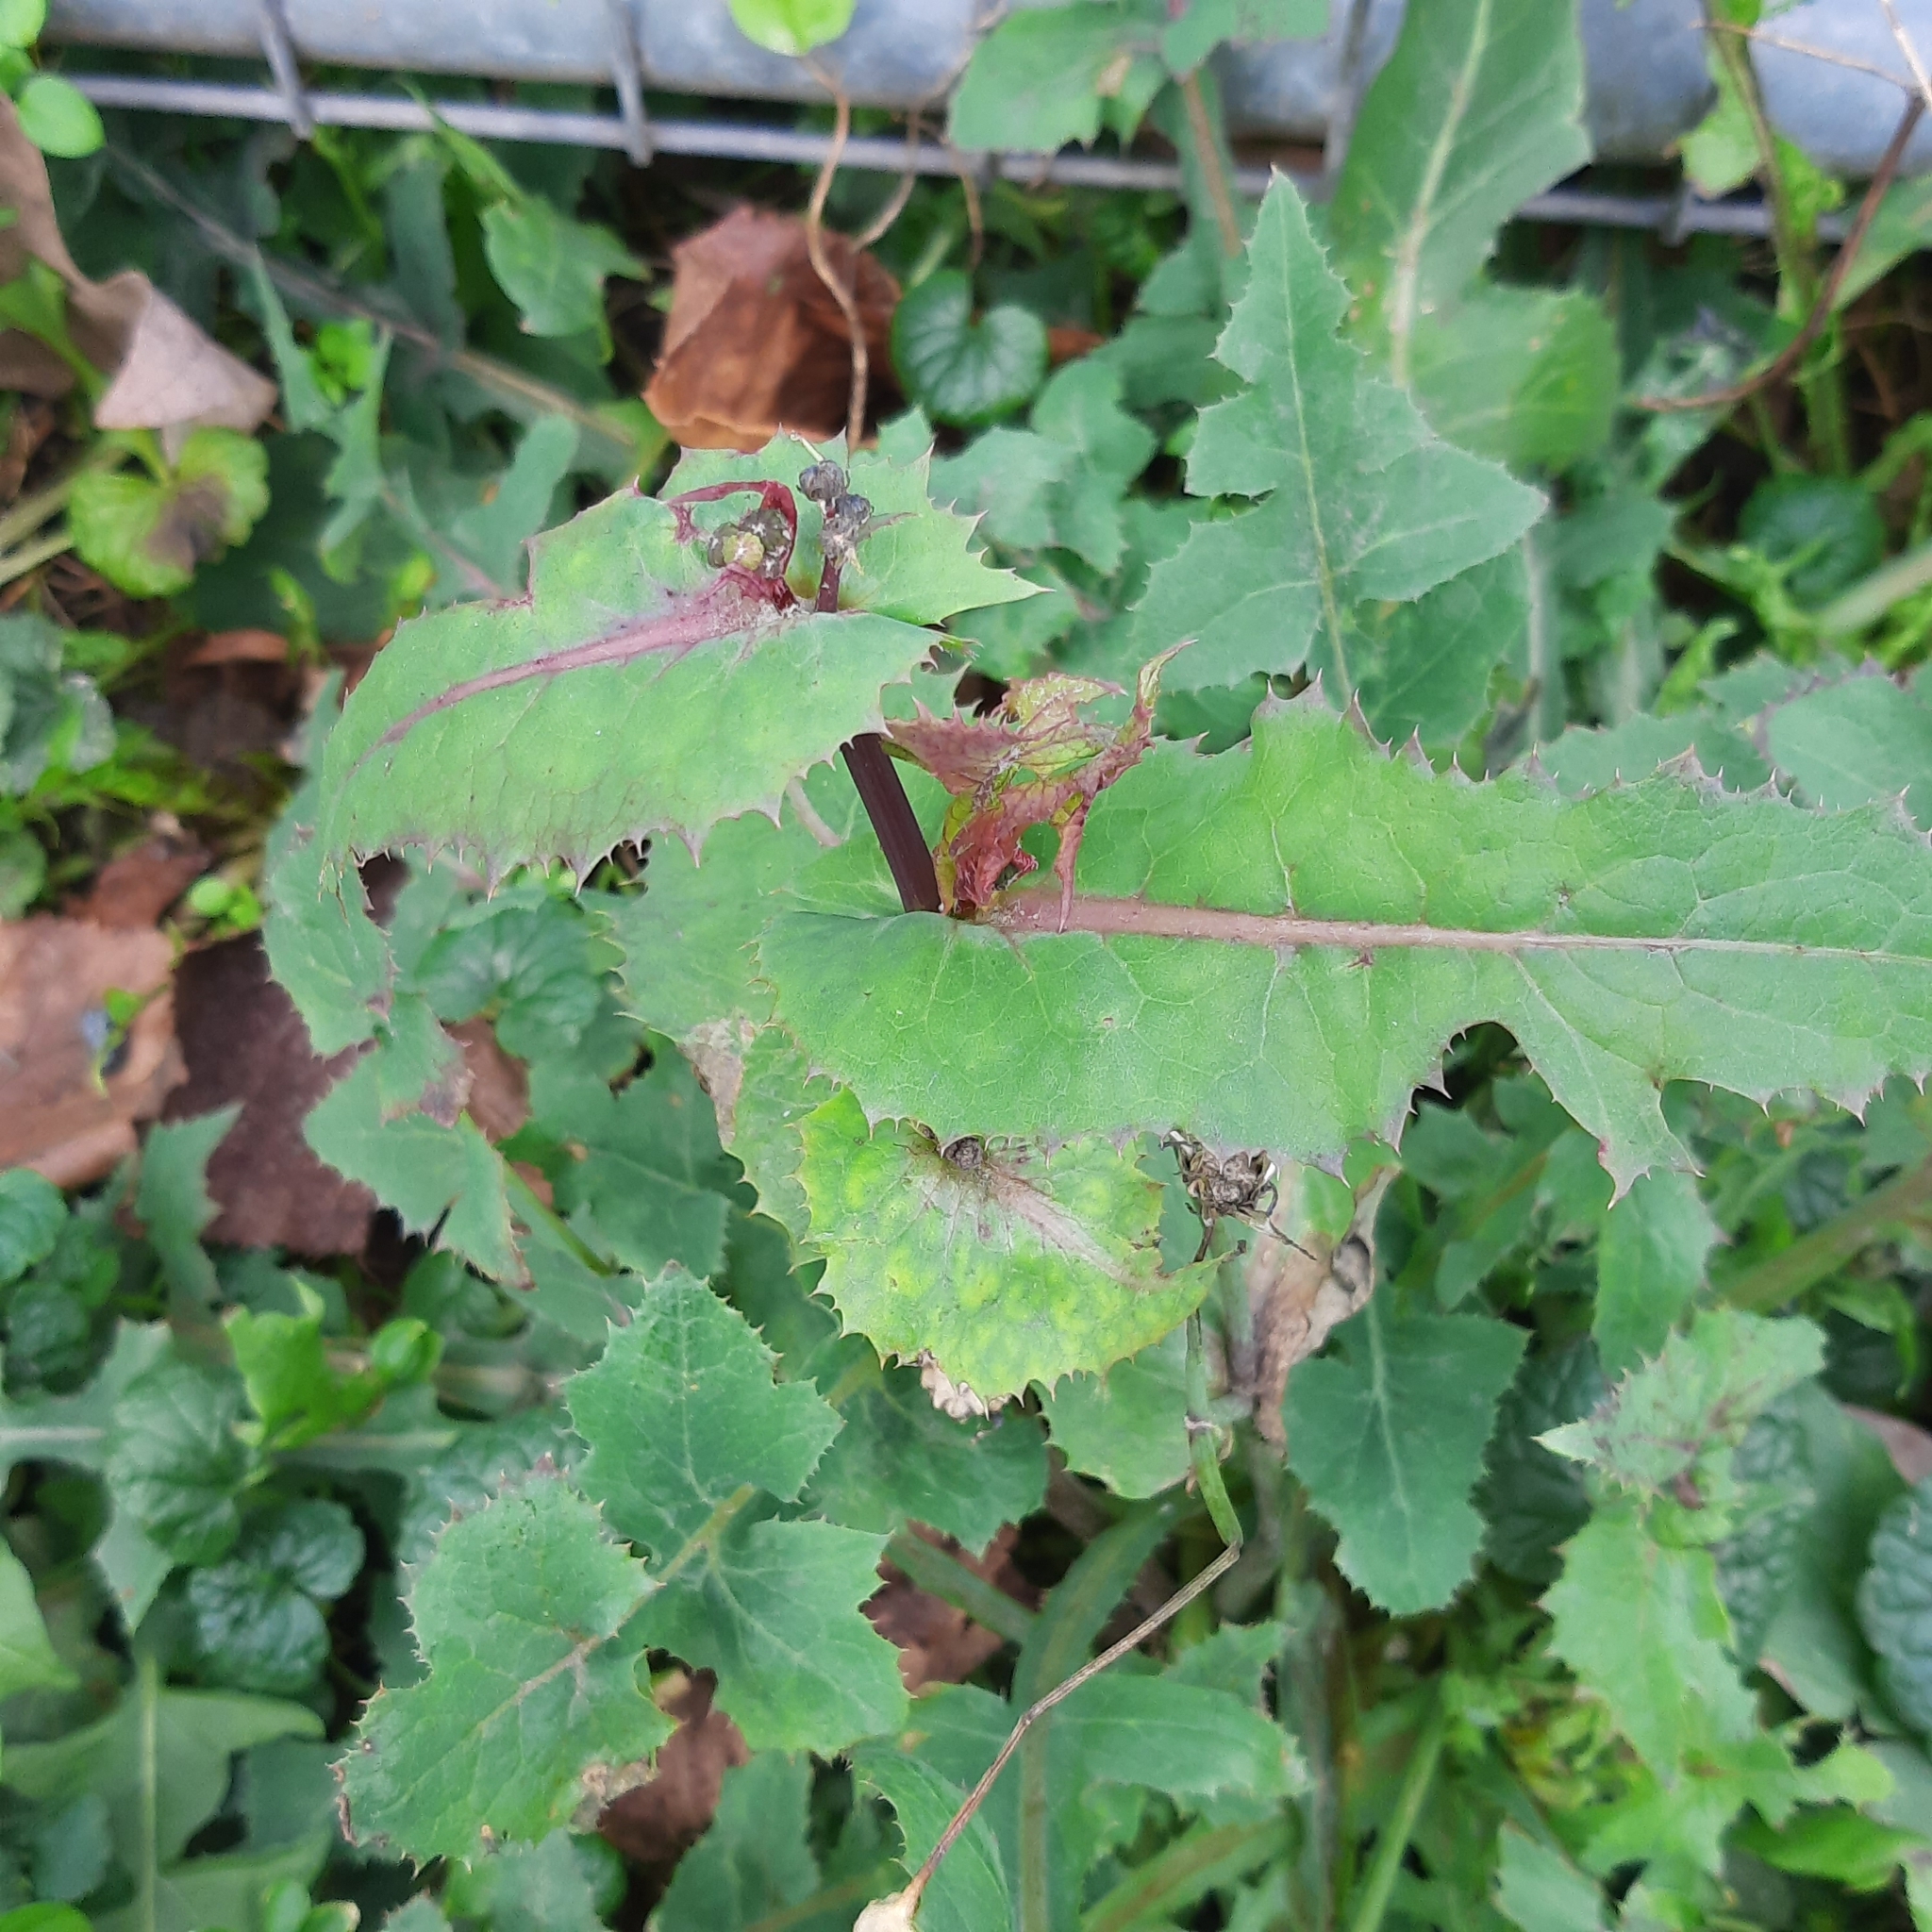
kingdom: Plantae
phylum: Tracheophyta
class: Magnoliopsida
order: Asterales
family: Asteraceae
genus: Sonchus
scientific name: Sonchus asper
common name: Prickly sow-thistle
